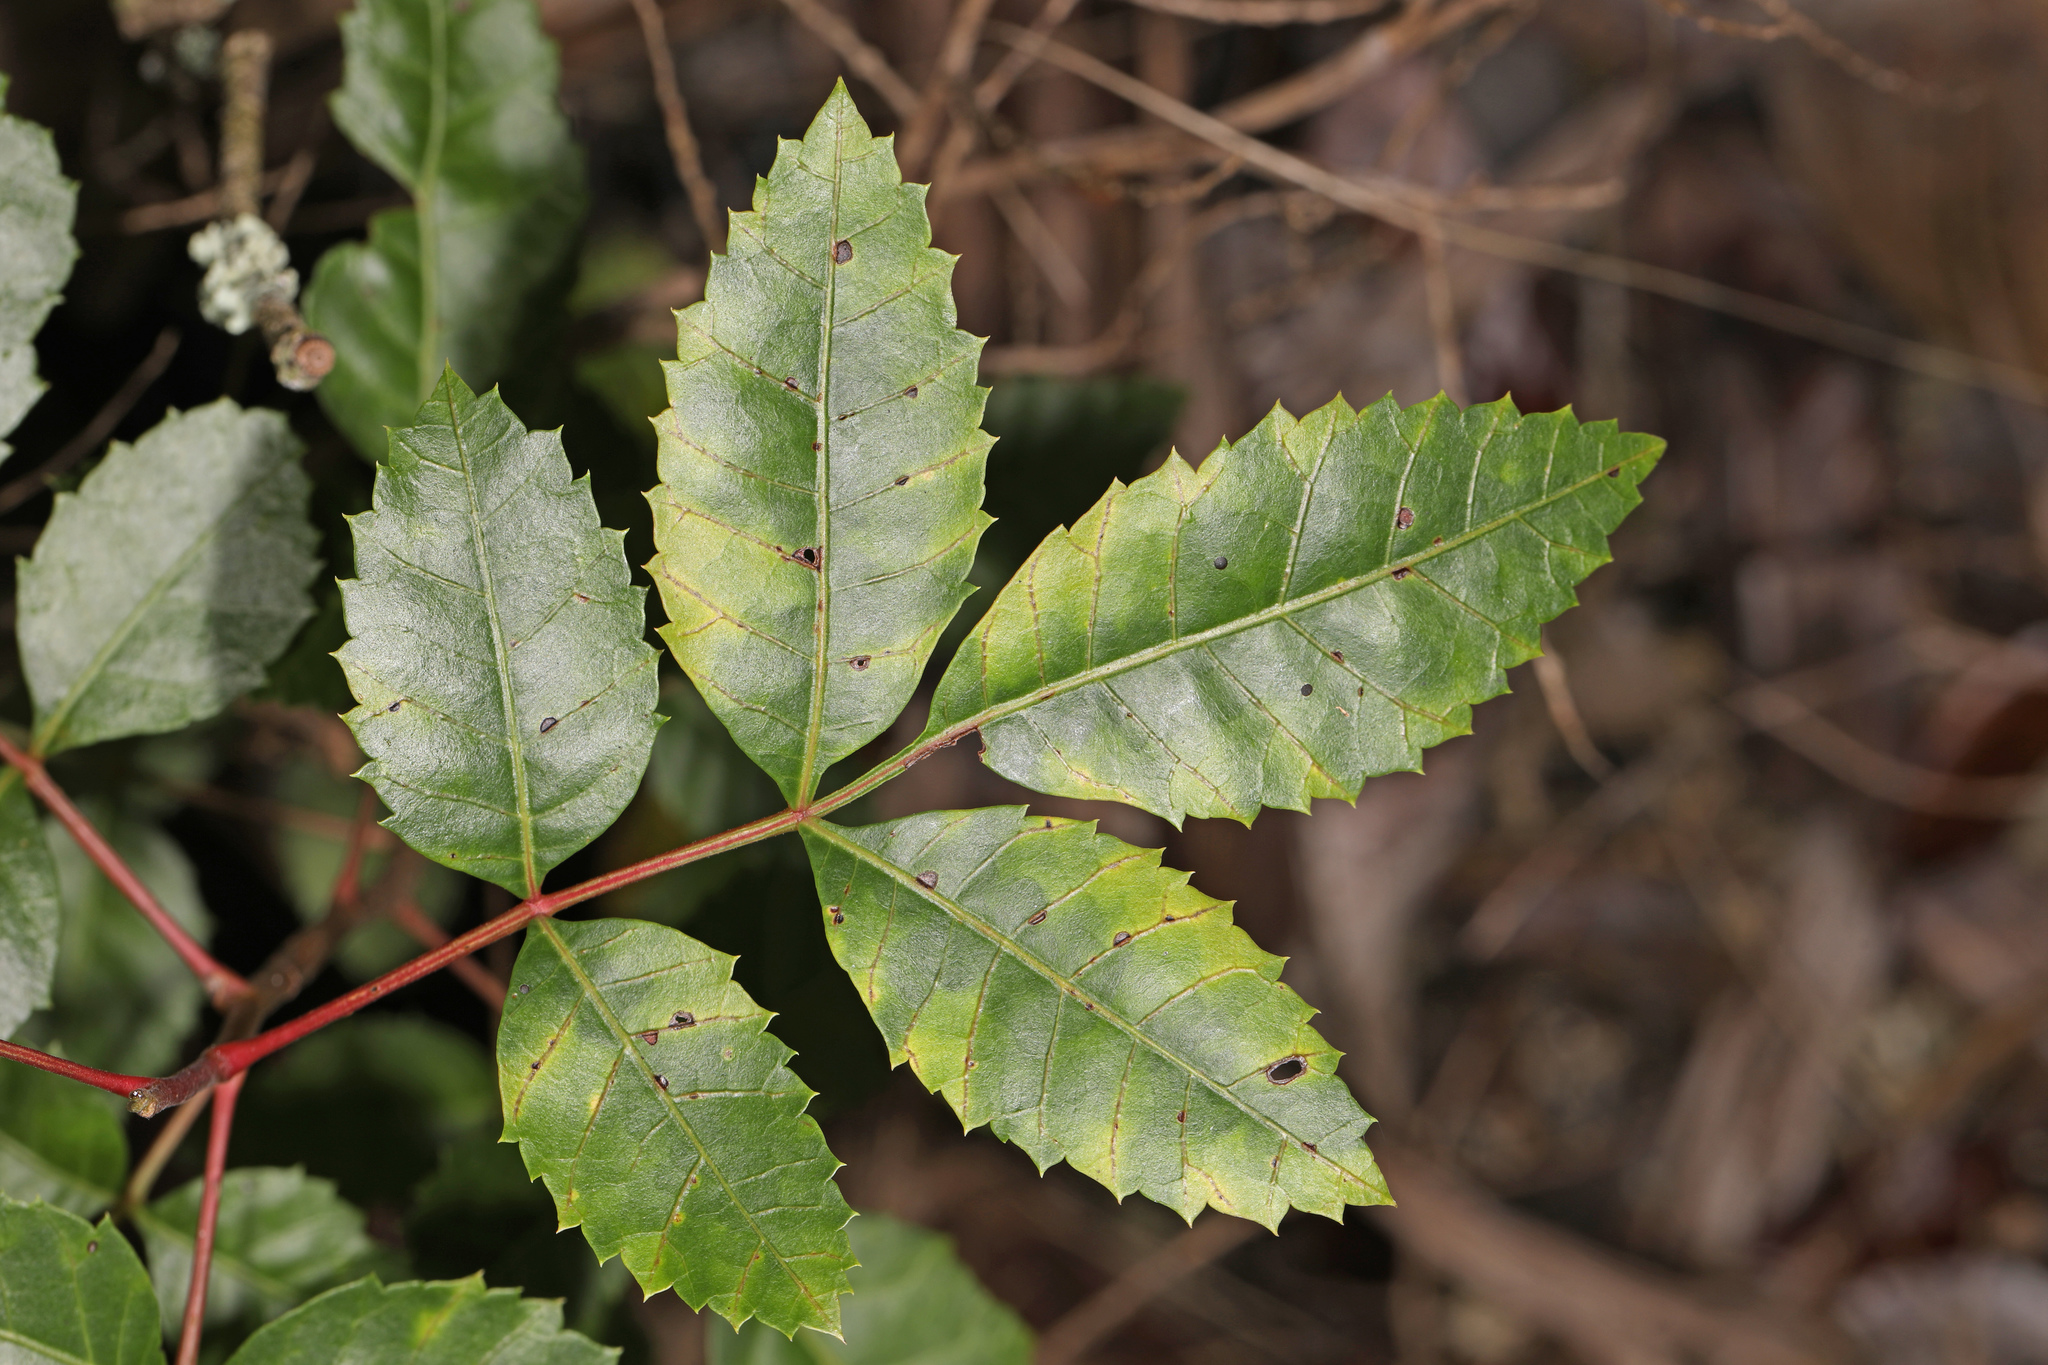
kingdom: Plantae
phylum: Tracheophyta
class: Magnoliopsida
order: Sapindales
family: Anacardiaceae
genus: Schinus
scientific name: Schinus terebinthifolia
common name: Brazilian peppertree
